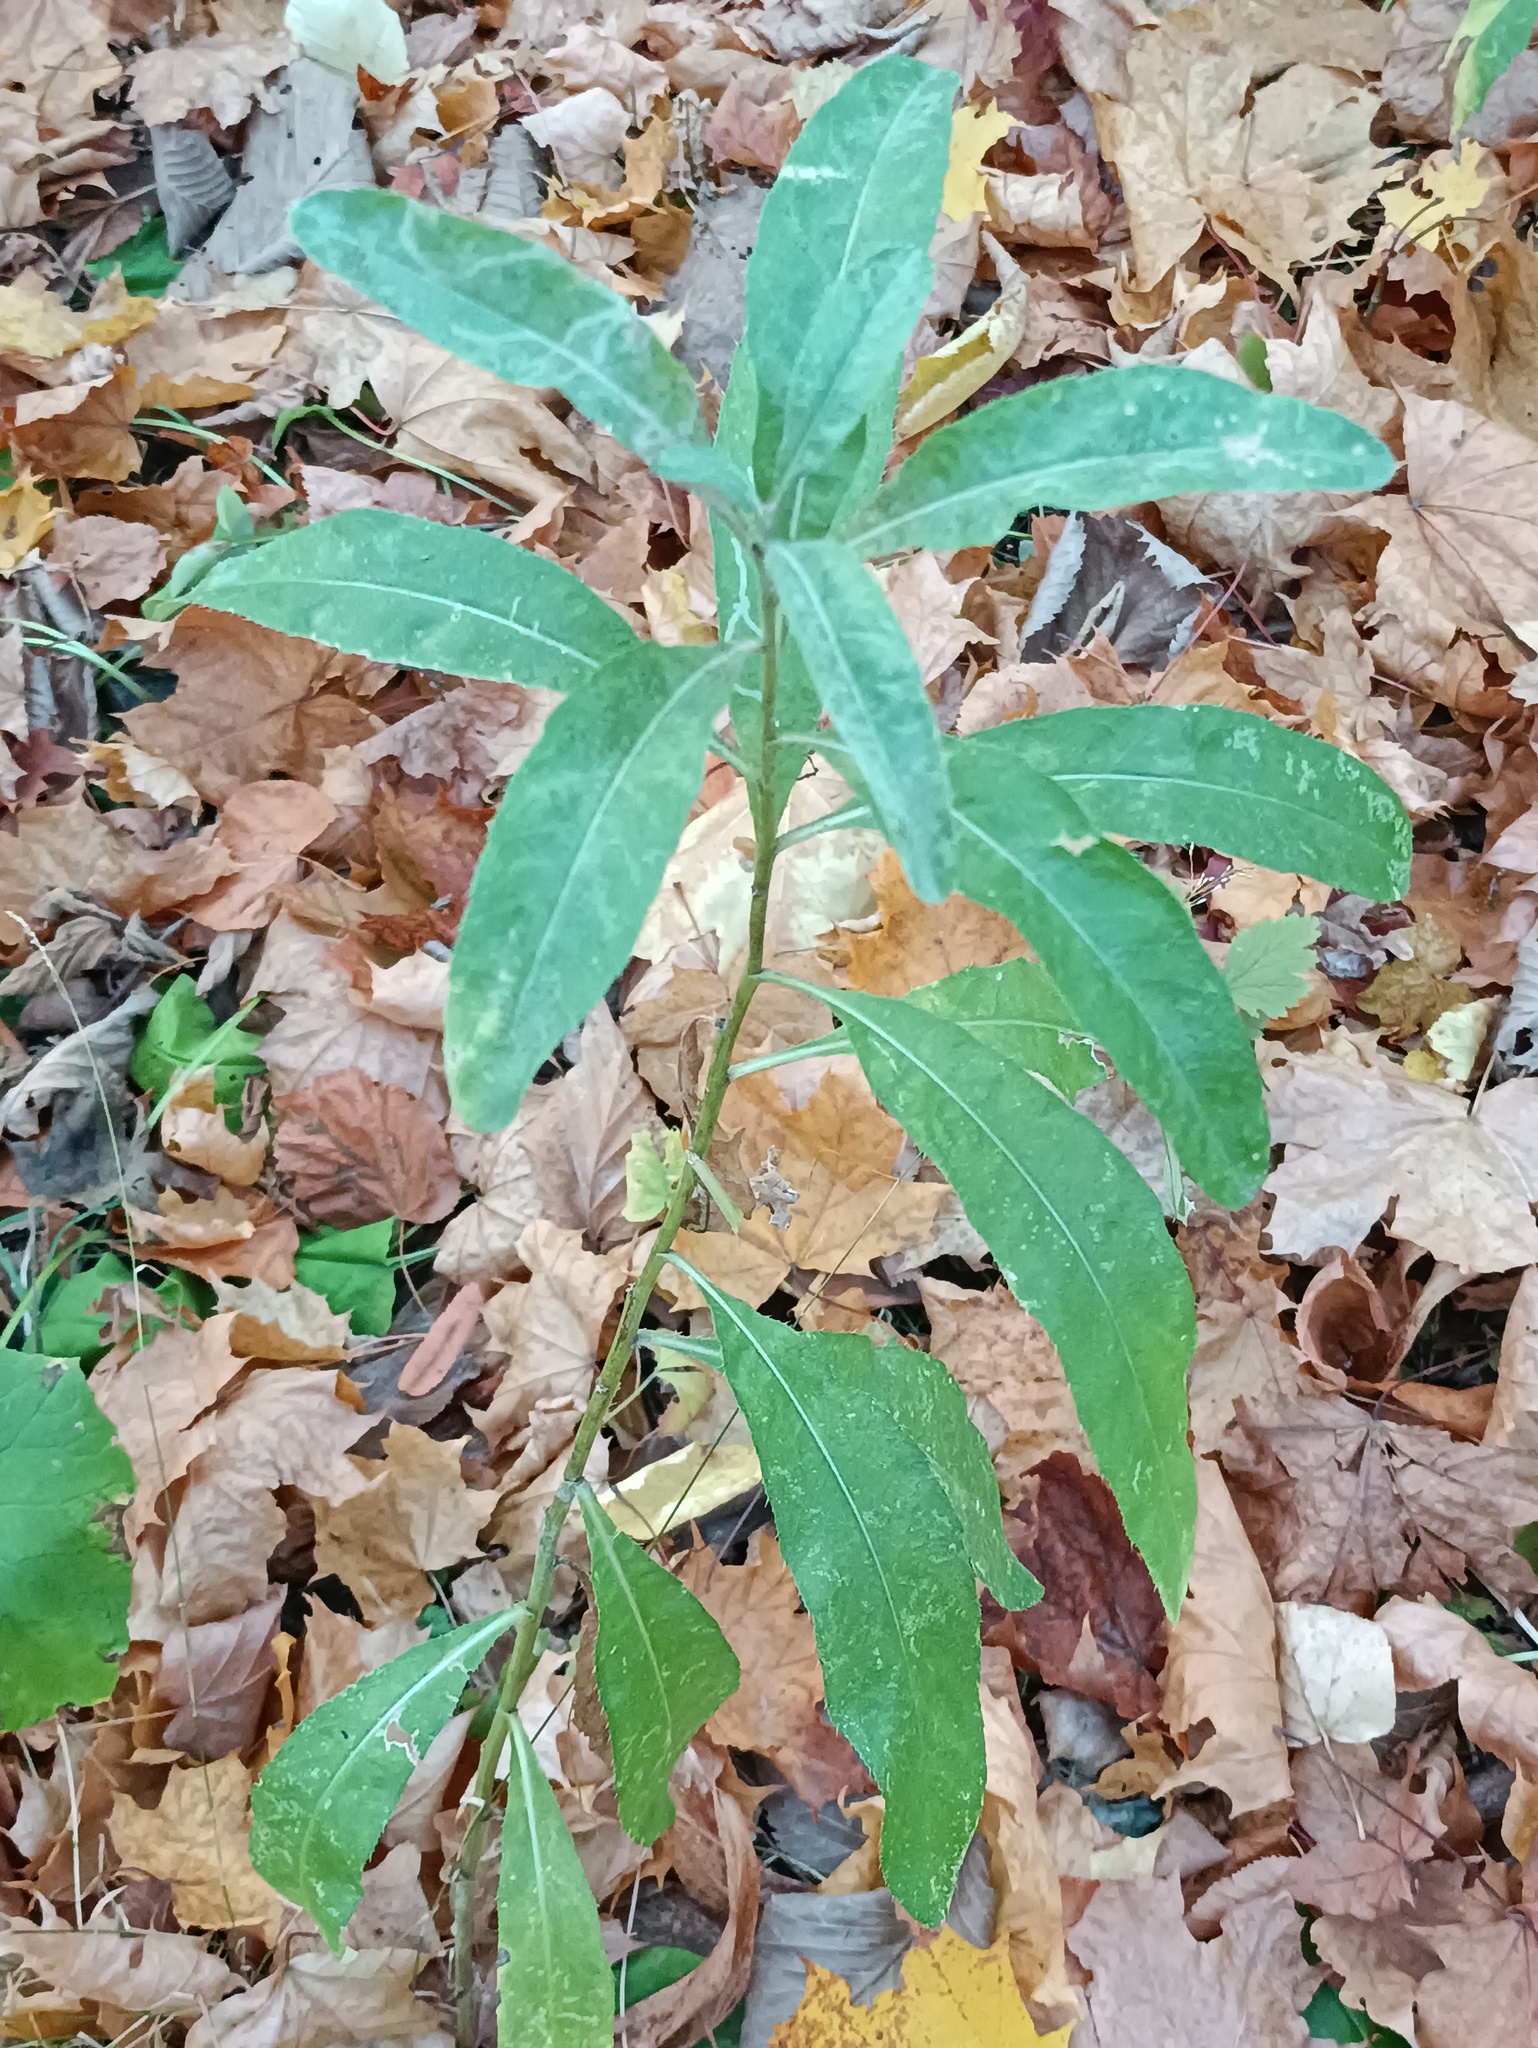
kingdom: Plantae
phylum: Tracheophyta
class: Magnoliopsida
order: Asterales
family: Asteraceae
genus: Cirsium
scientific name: Cirsium arvense
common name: Creeping thistle
